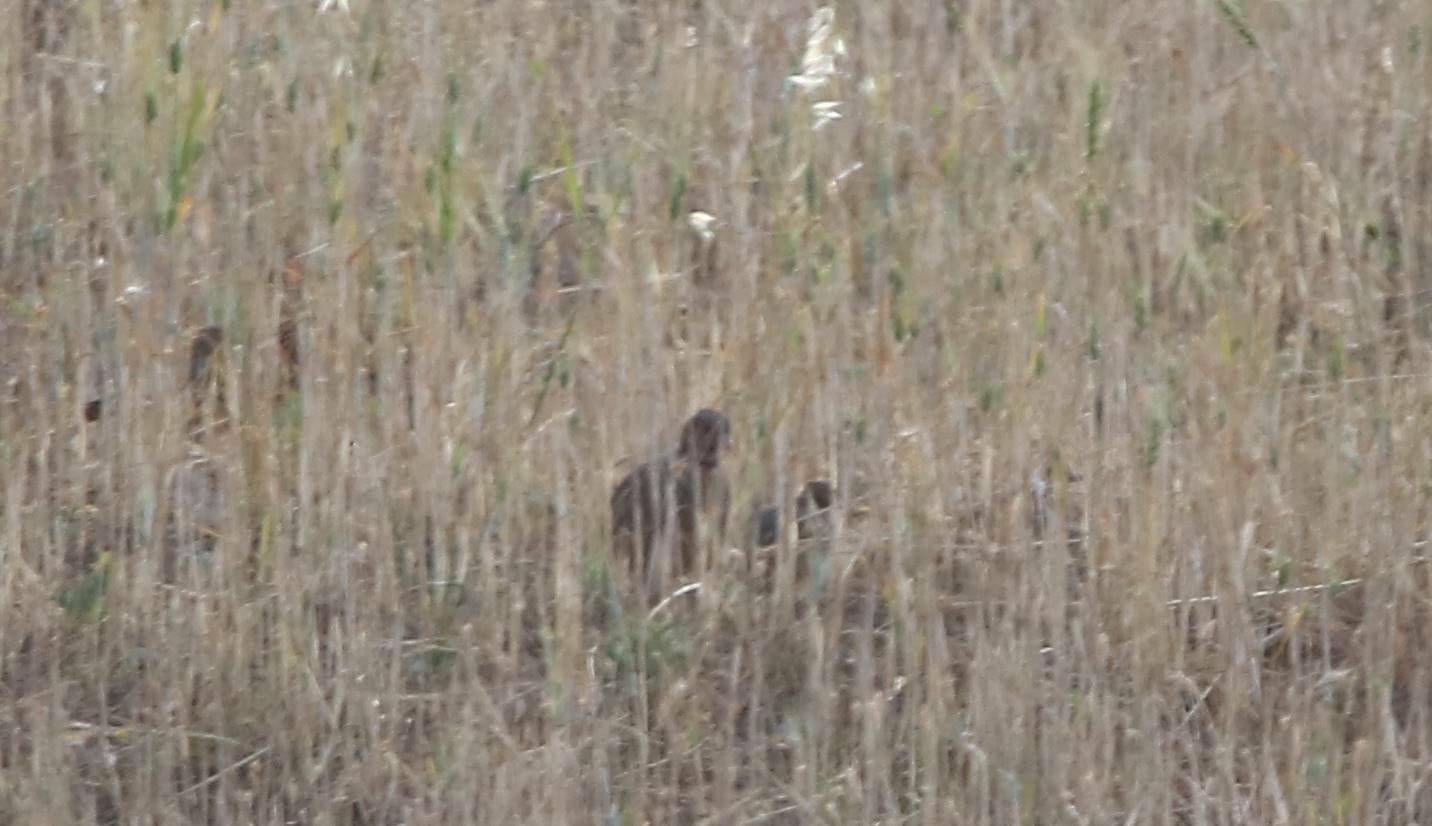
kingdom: Animalia
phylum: Chordata
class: Aves
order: Galliformes
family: Phasianidae
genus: Alectoris
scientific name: Alectoris barbara
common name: Barbary partridge
